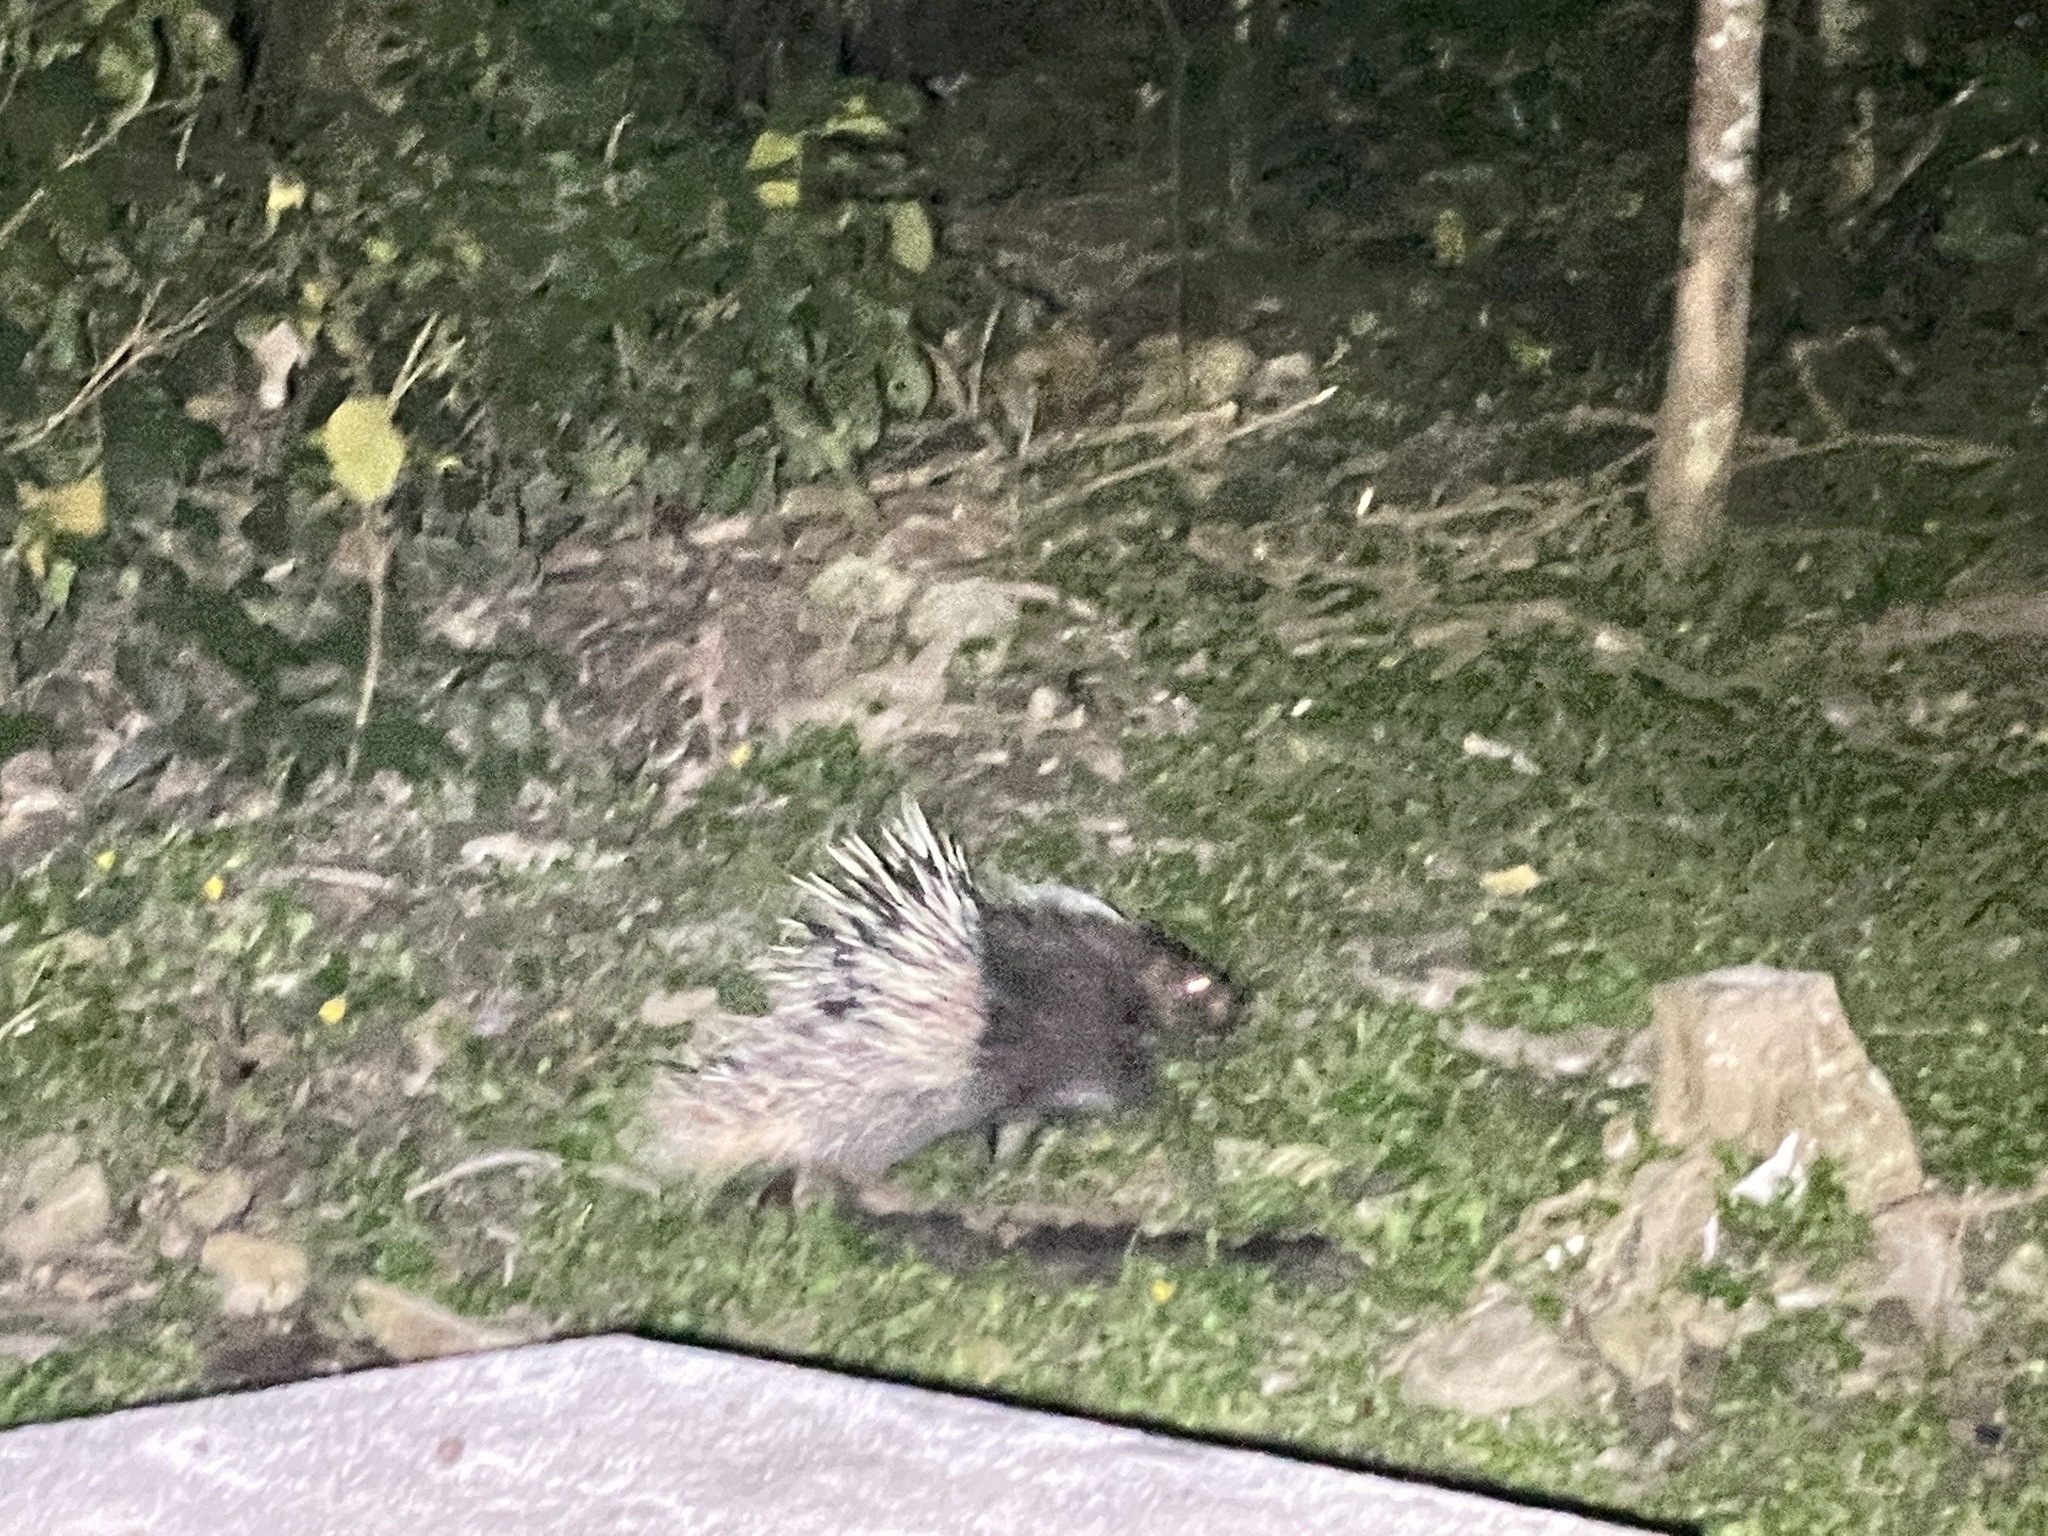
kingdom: Animalia
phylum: Chordata
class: Mammalia
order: Rodentia
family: Hystricidae
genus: Hystrix
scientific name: Hystrix brachyura
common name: Malayan porcupine
